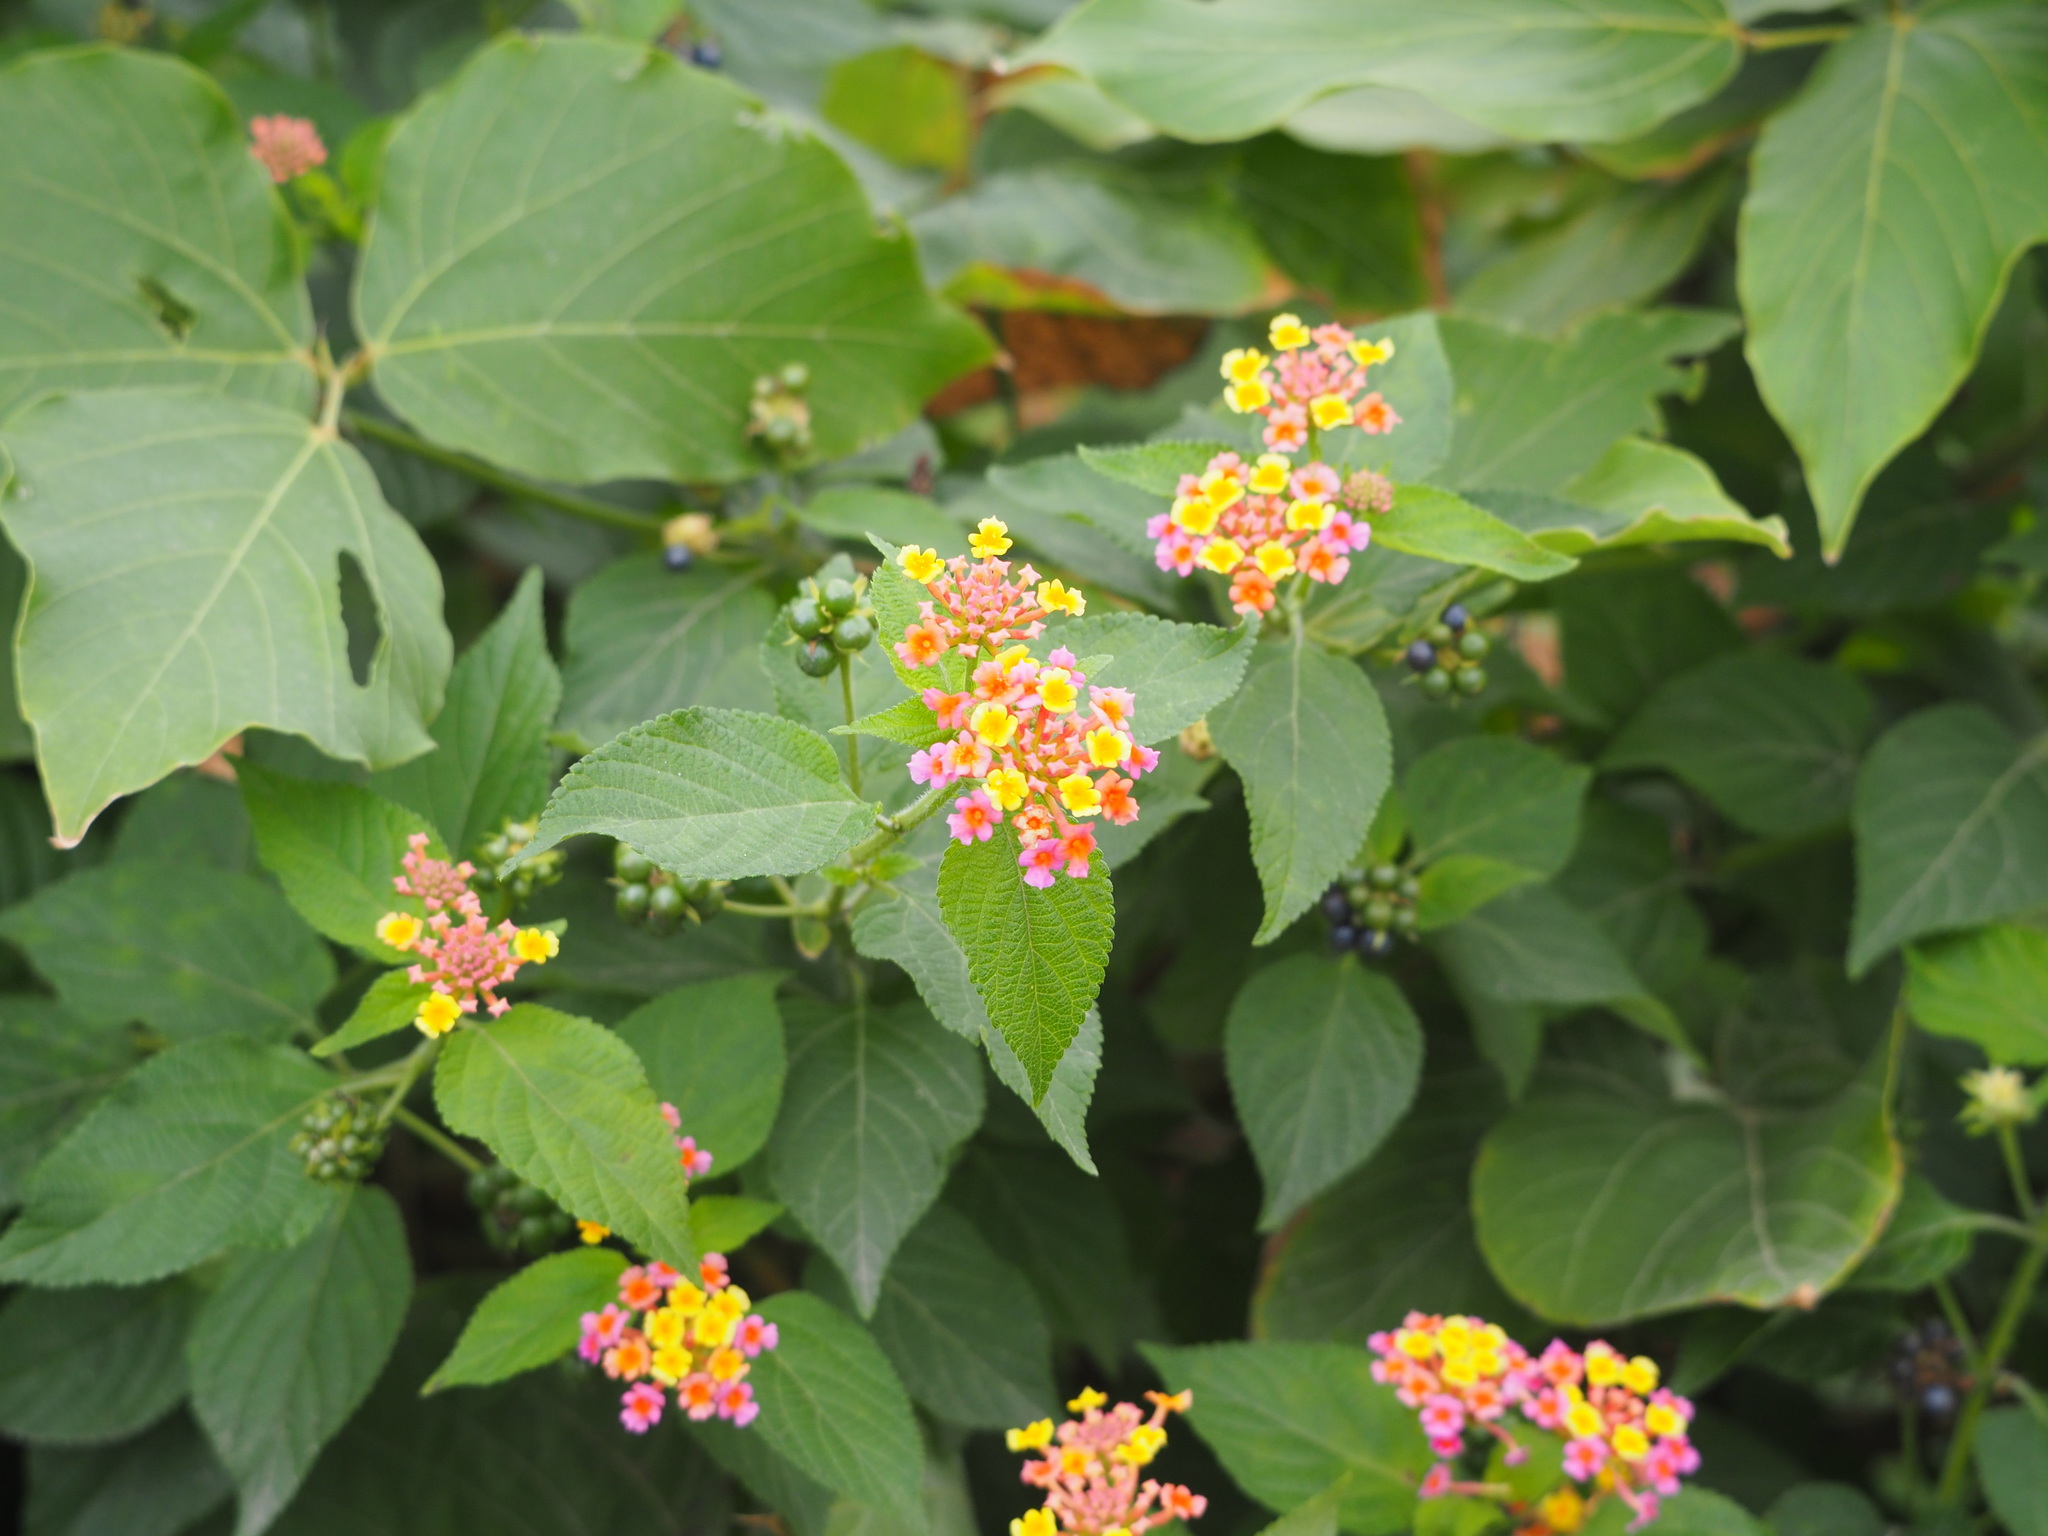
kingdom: Plantae
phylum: Tracheophyta
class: Magnoliopsida
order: Lamiales
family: Verbenaceae
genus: Lantana
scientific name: Lantana camara
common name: Lantana
